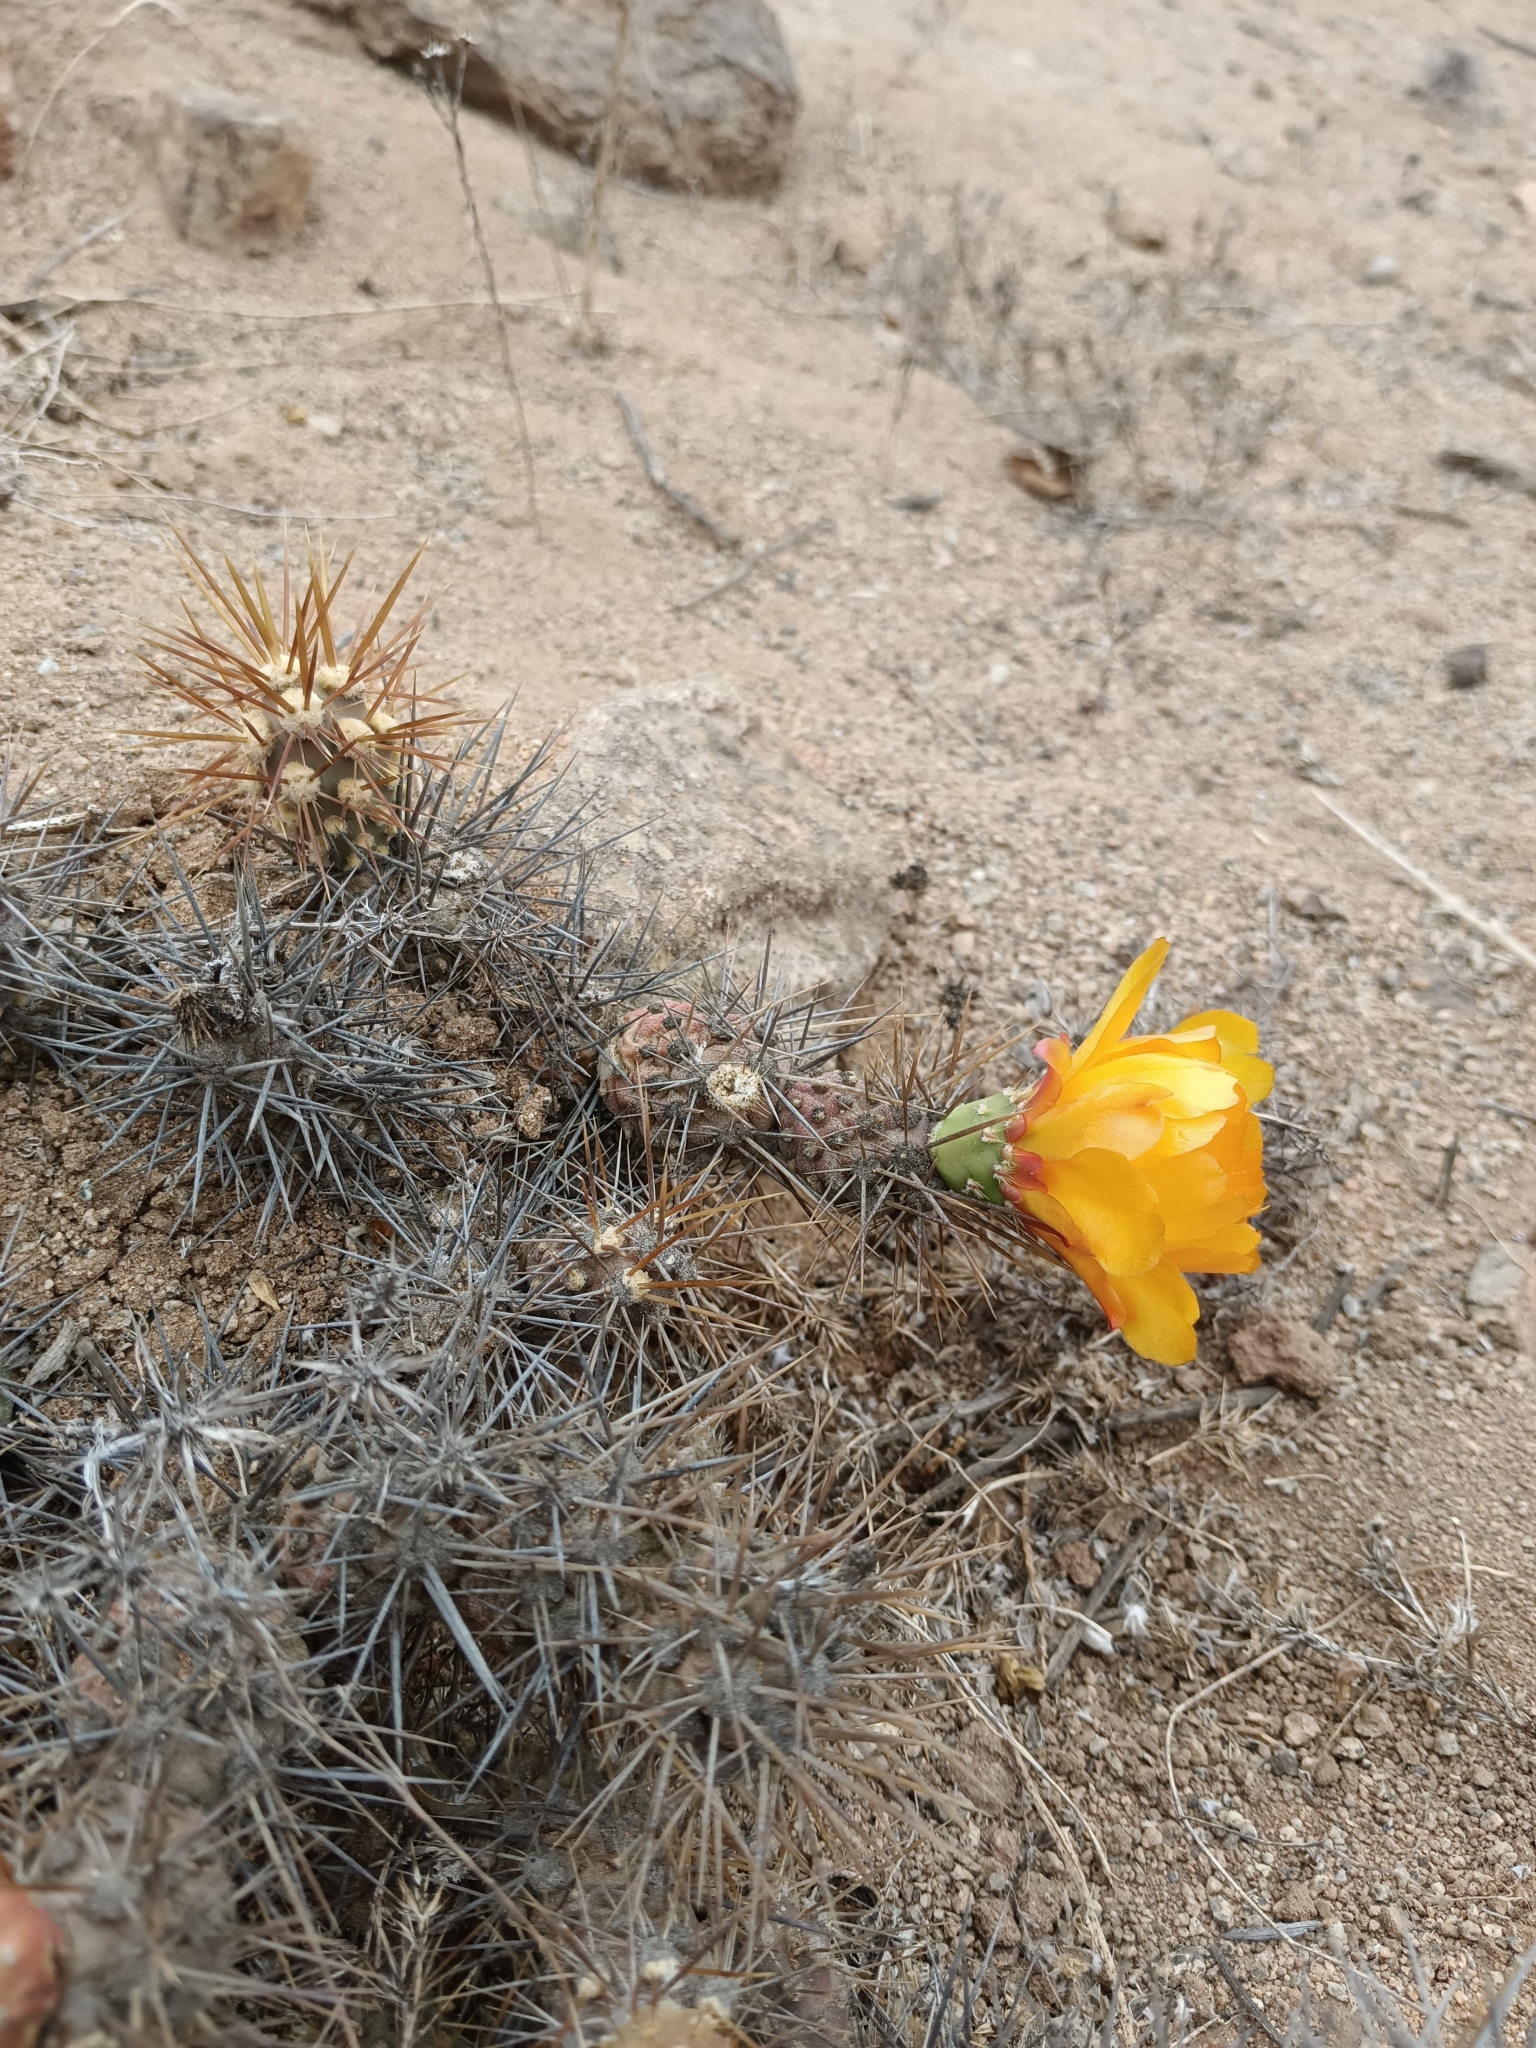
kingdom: Plantae
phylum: Tracheophyta
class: Magnoliopsida
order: Caryophyllales
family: Cactaceae
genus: Cumulopuntia
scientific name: Cumulopuntia leucophaea
